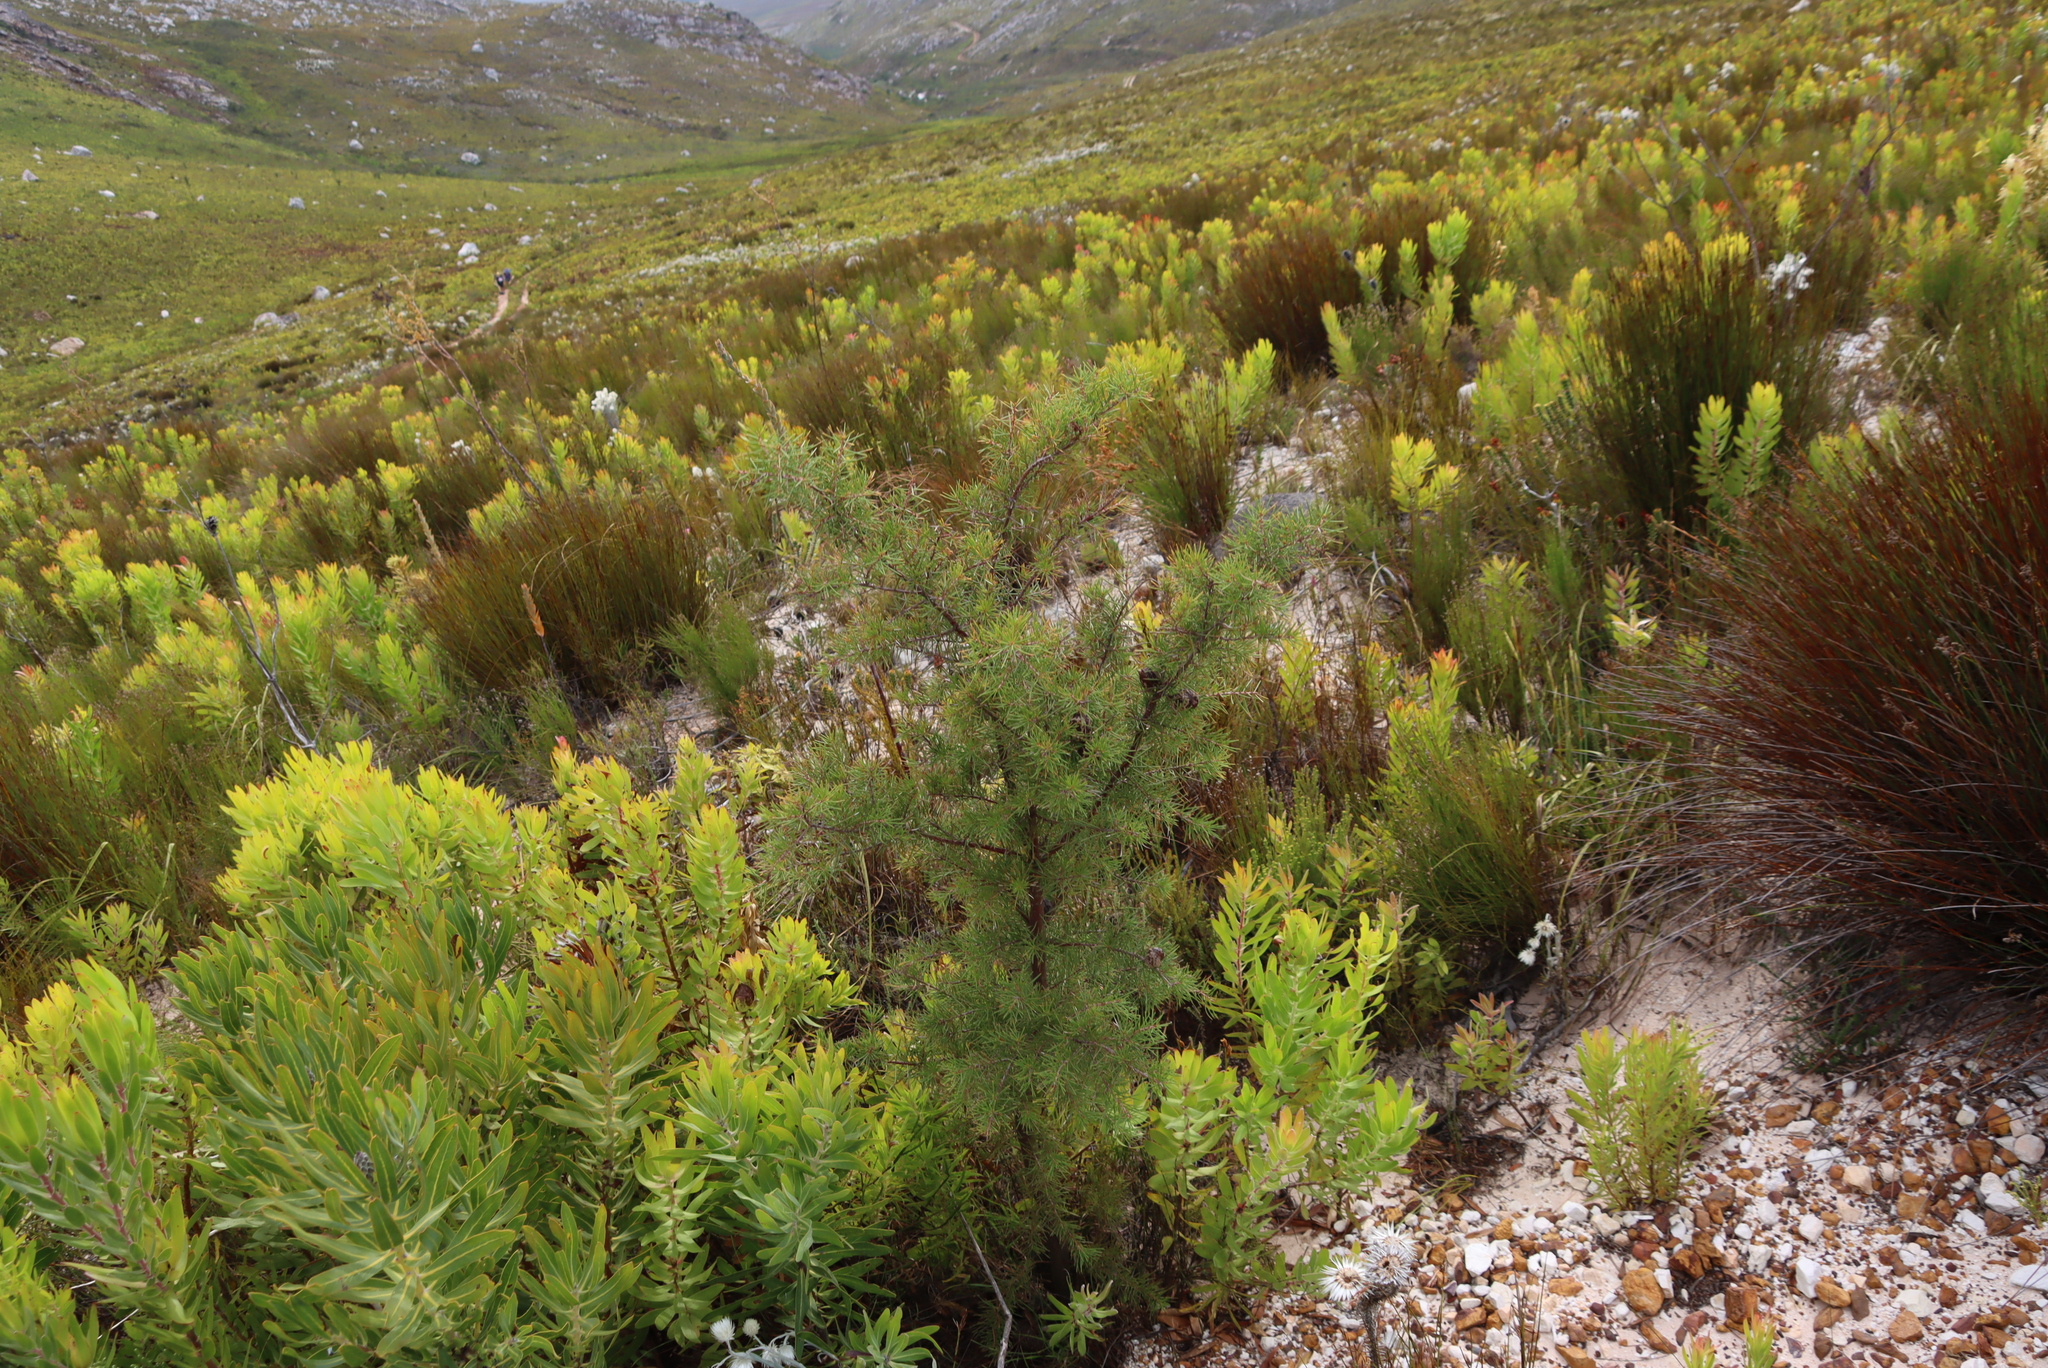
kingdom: Plantae
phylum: Tracheophyta
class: Magnoliopsida
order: Proteales
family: Proteaceae
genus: Hakea
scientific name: Hakea sericea
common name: Needle bush
